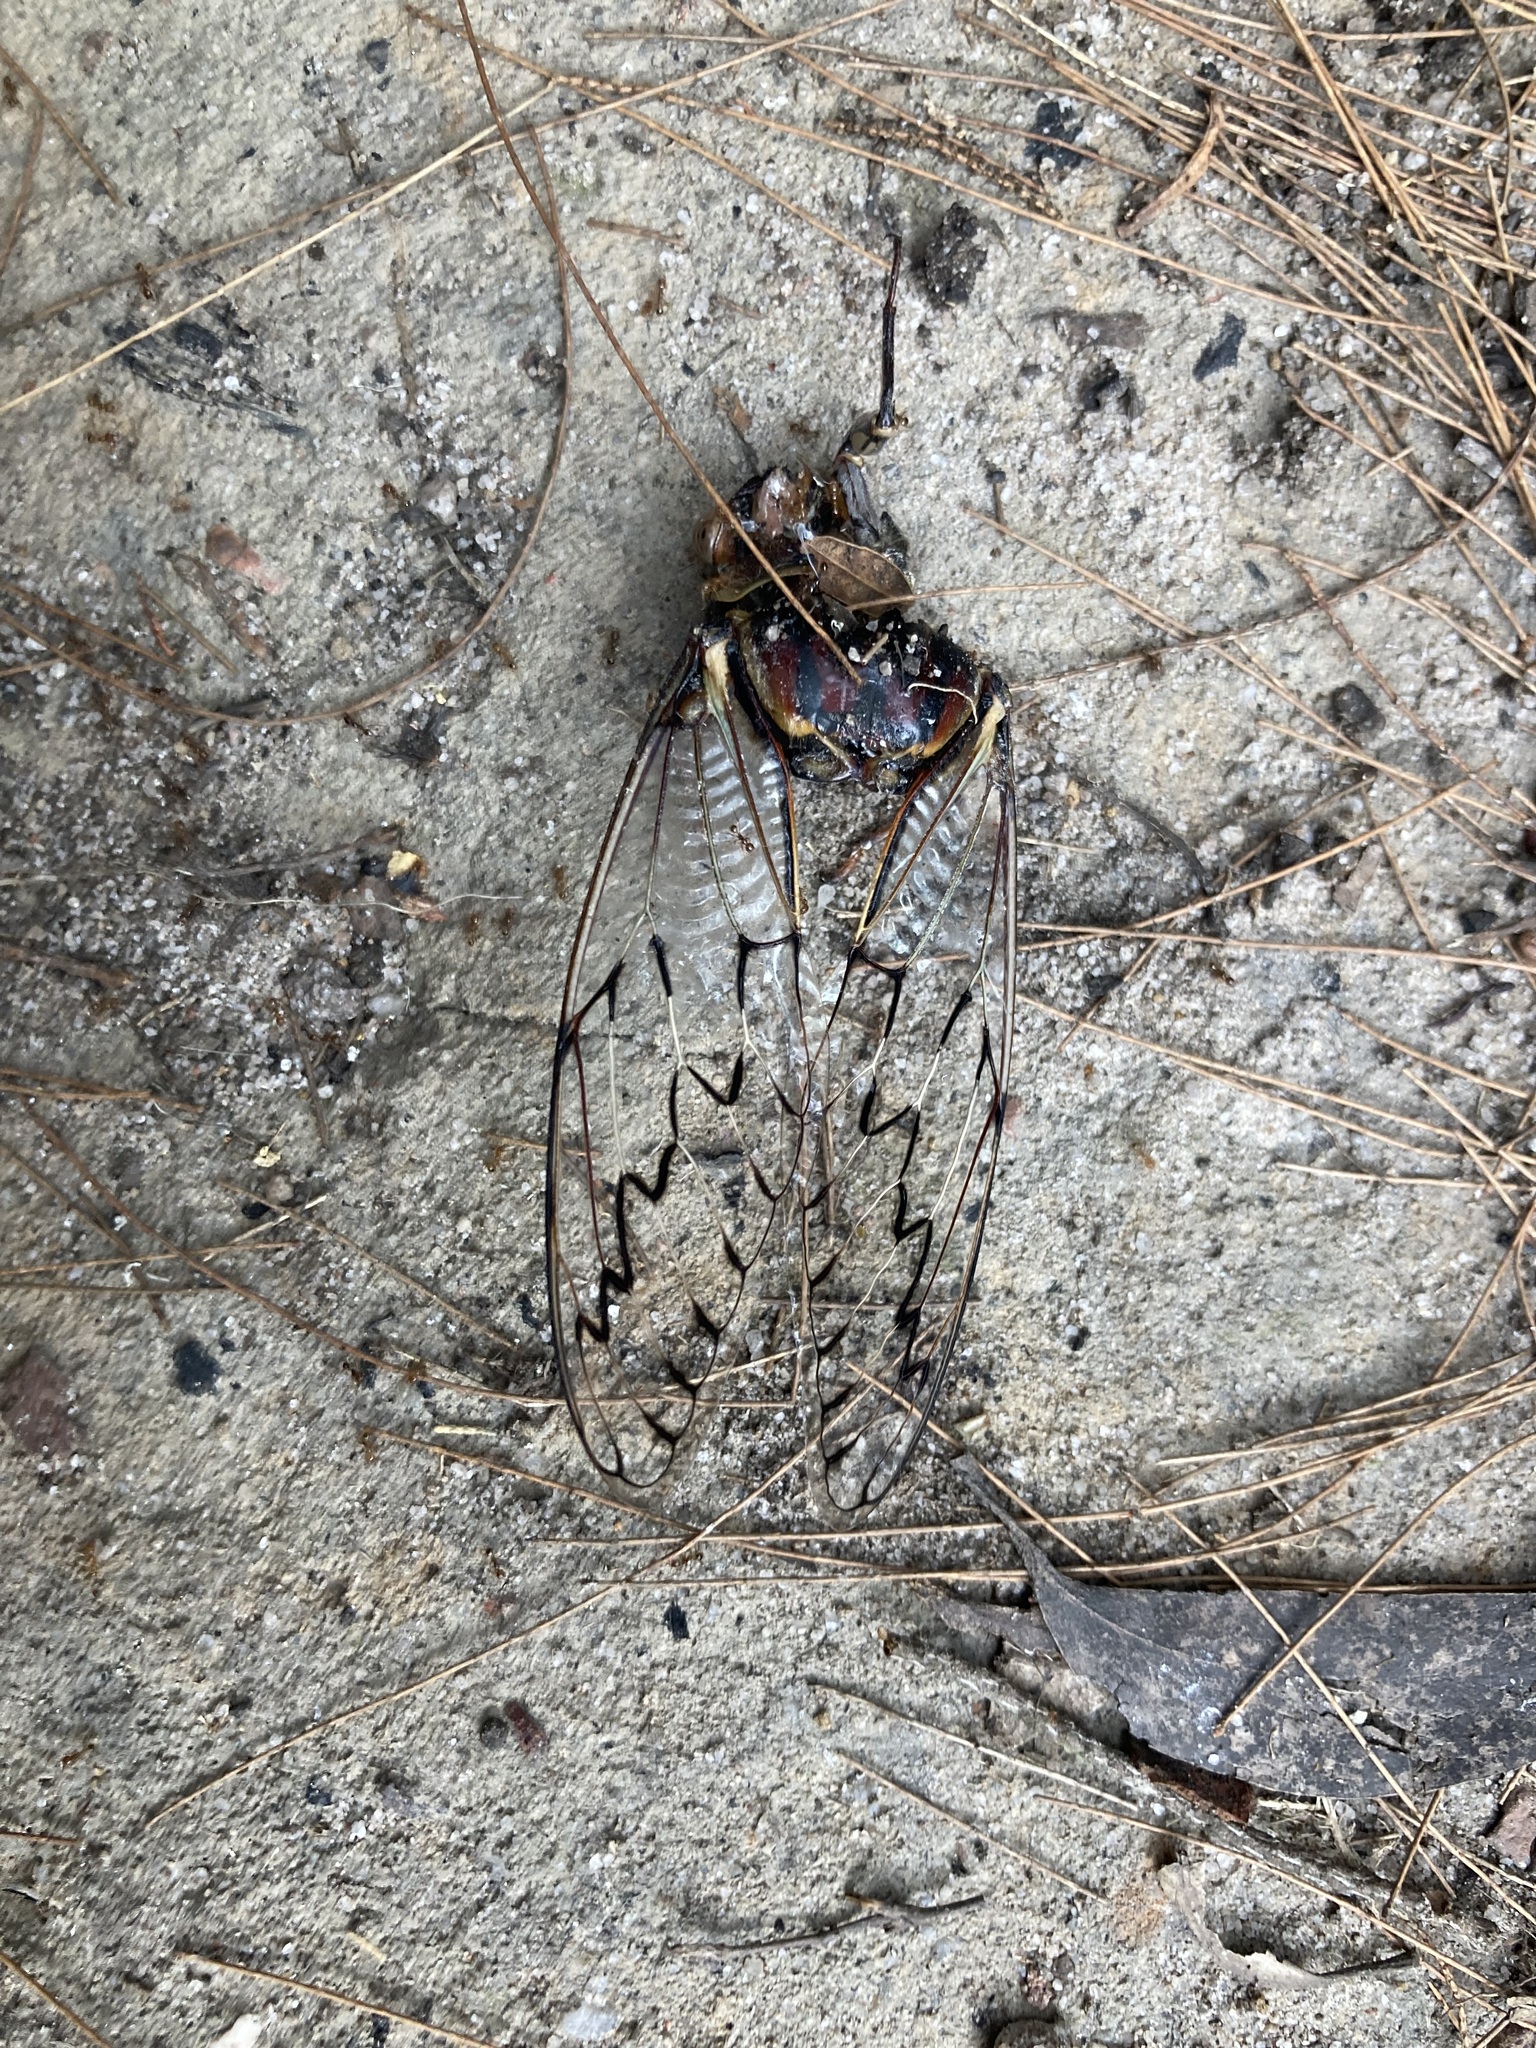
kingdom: Animalia
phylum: Arthropoda
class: Insecta
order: Hemiptera
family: Cicadidae
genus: Henicopsaltria
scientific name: Henicopsaltria eydouxii
